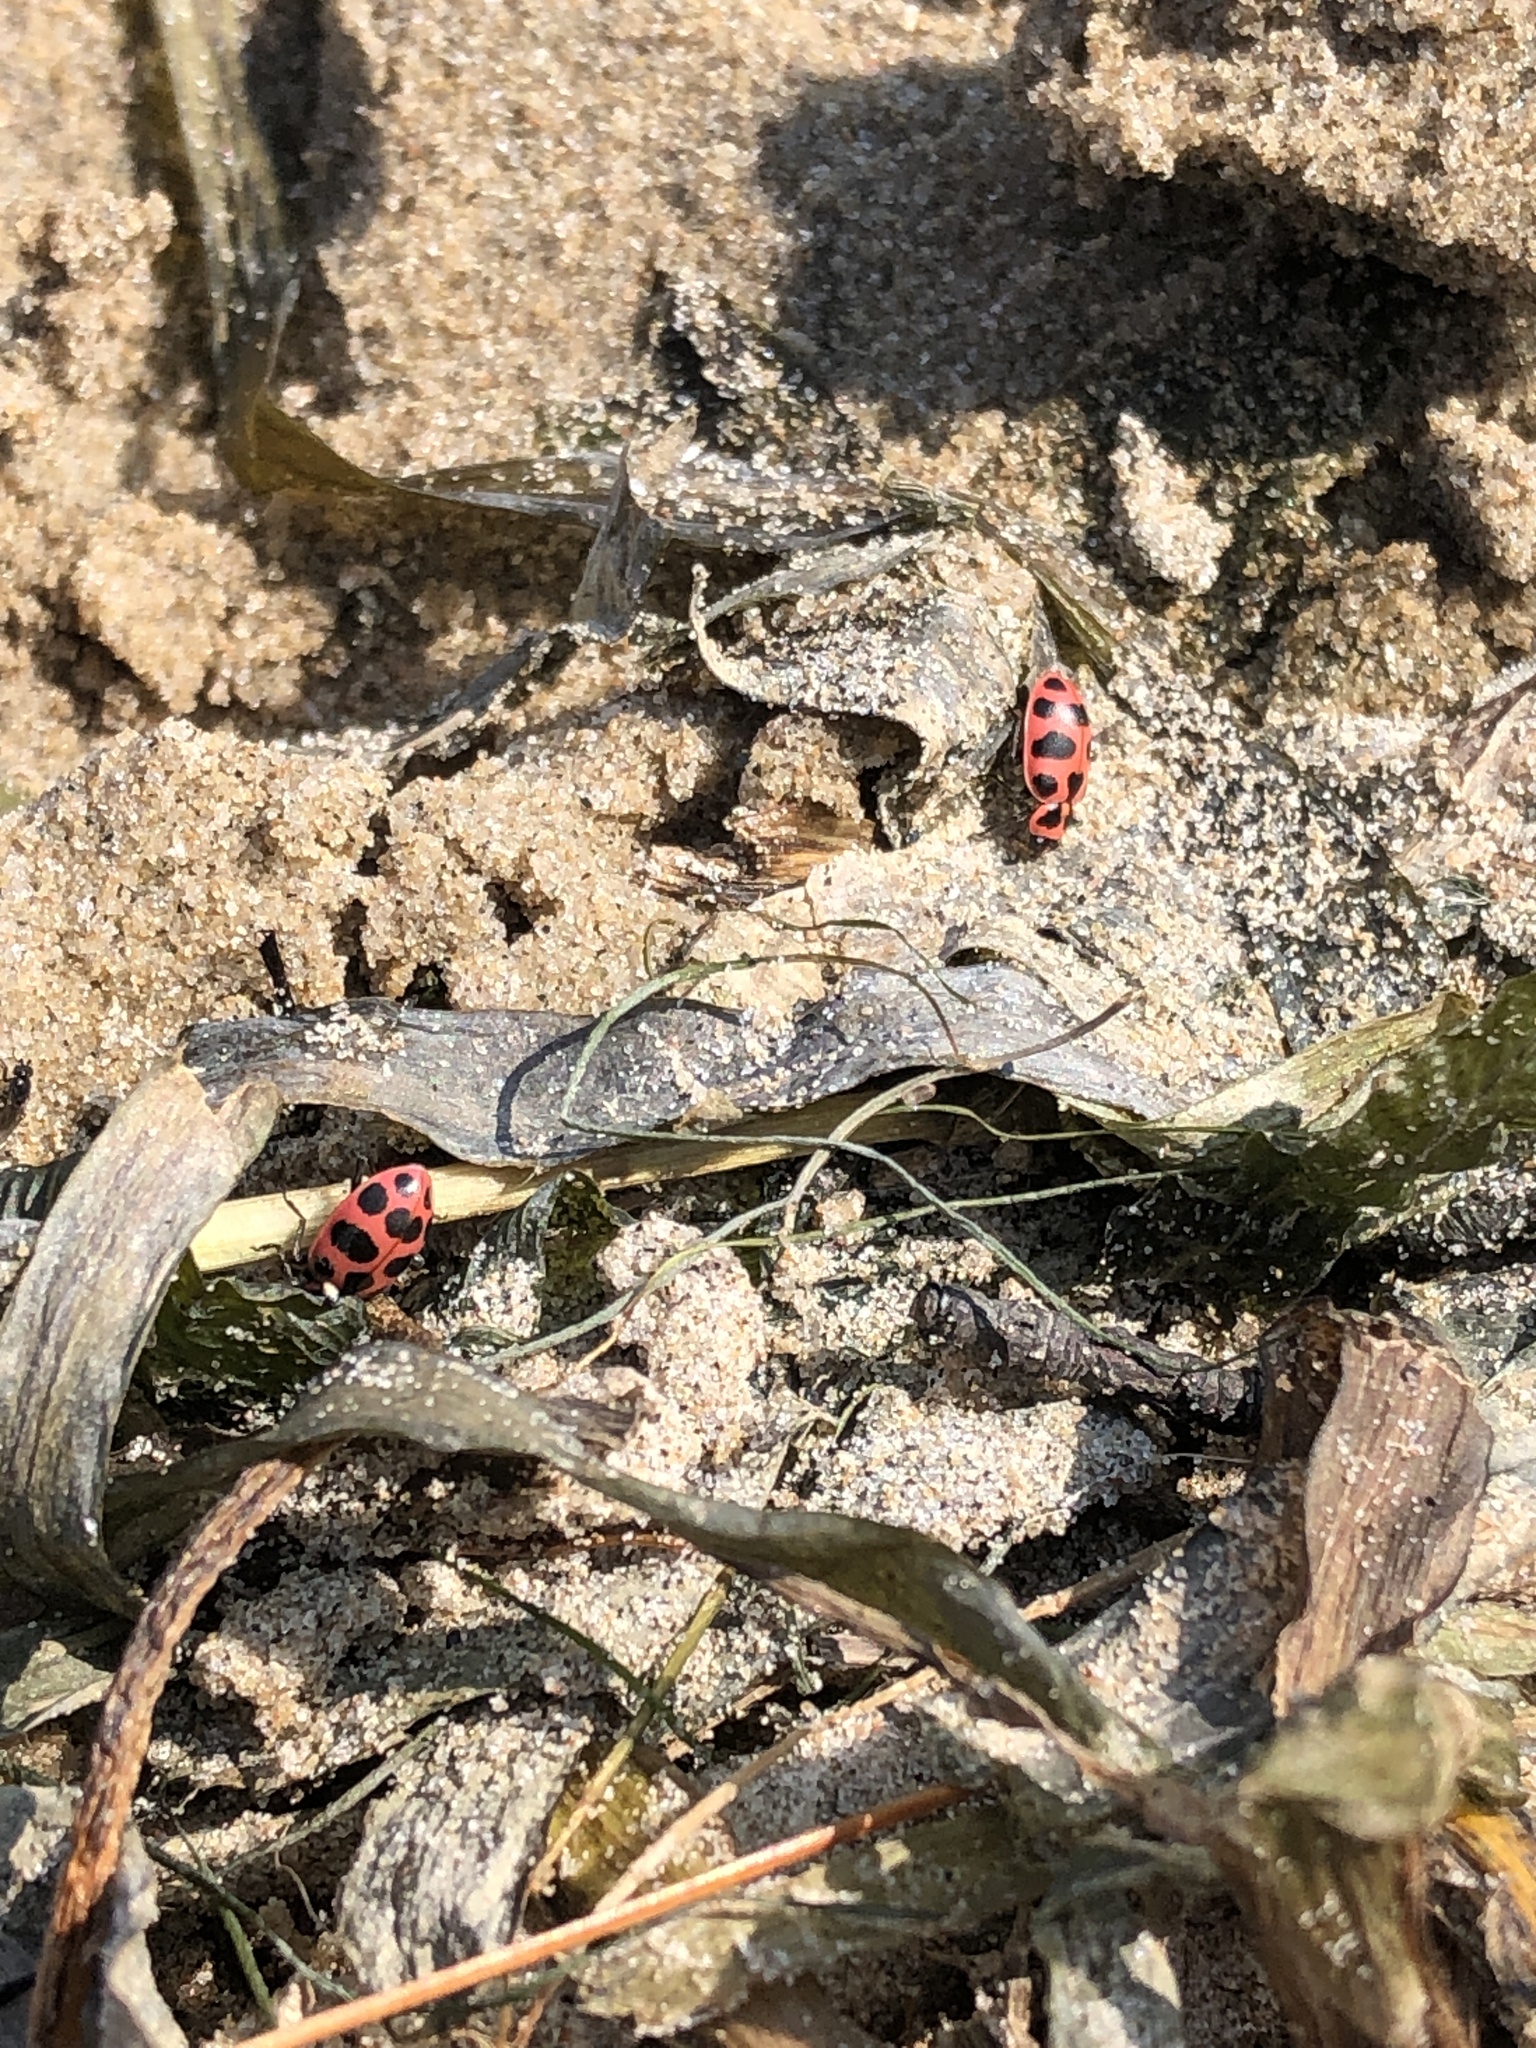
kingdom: Animalia
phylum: Arthropoda
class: Insecta
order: Coleoptera
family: Coccinellidae
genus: Coleomegilla
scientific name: Coleomegilla maculata
